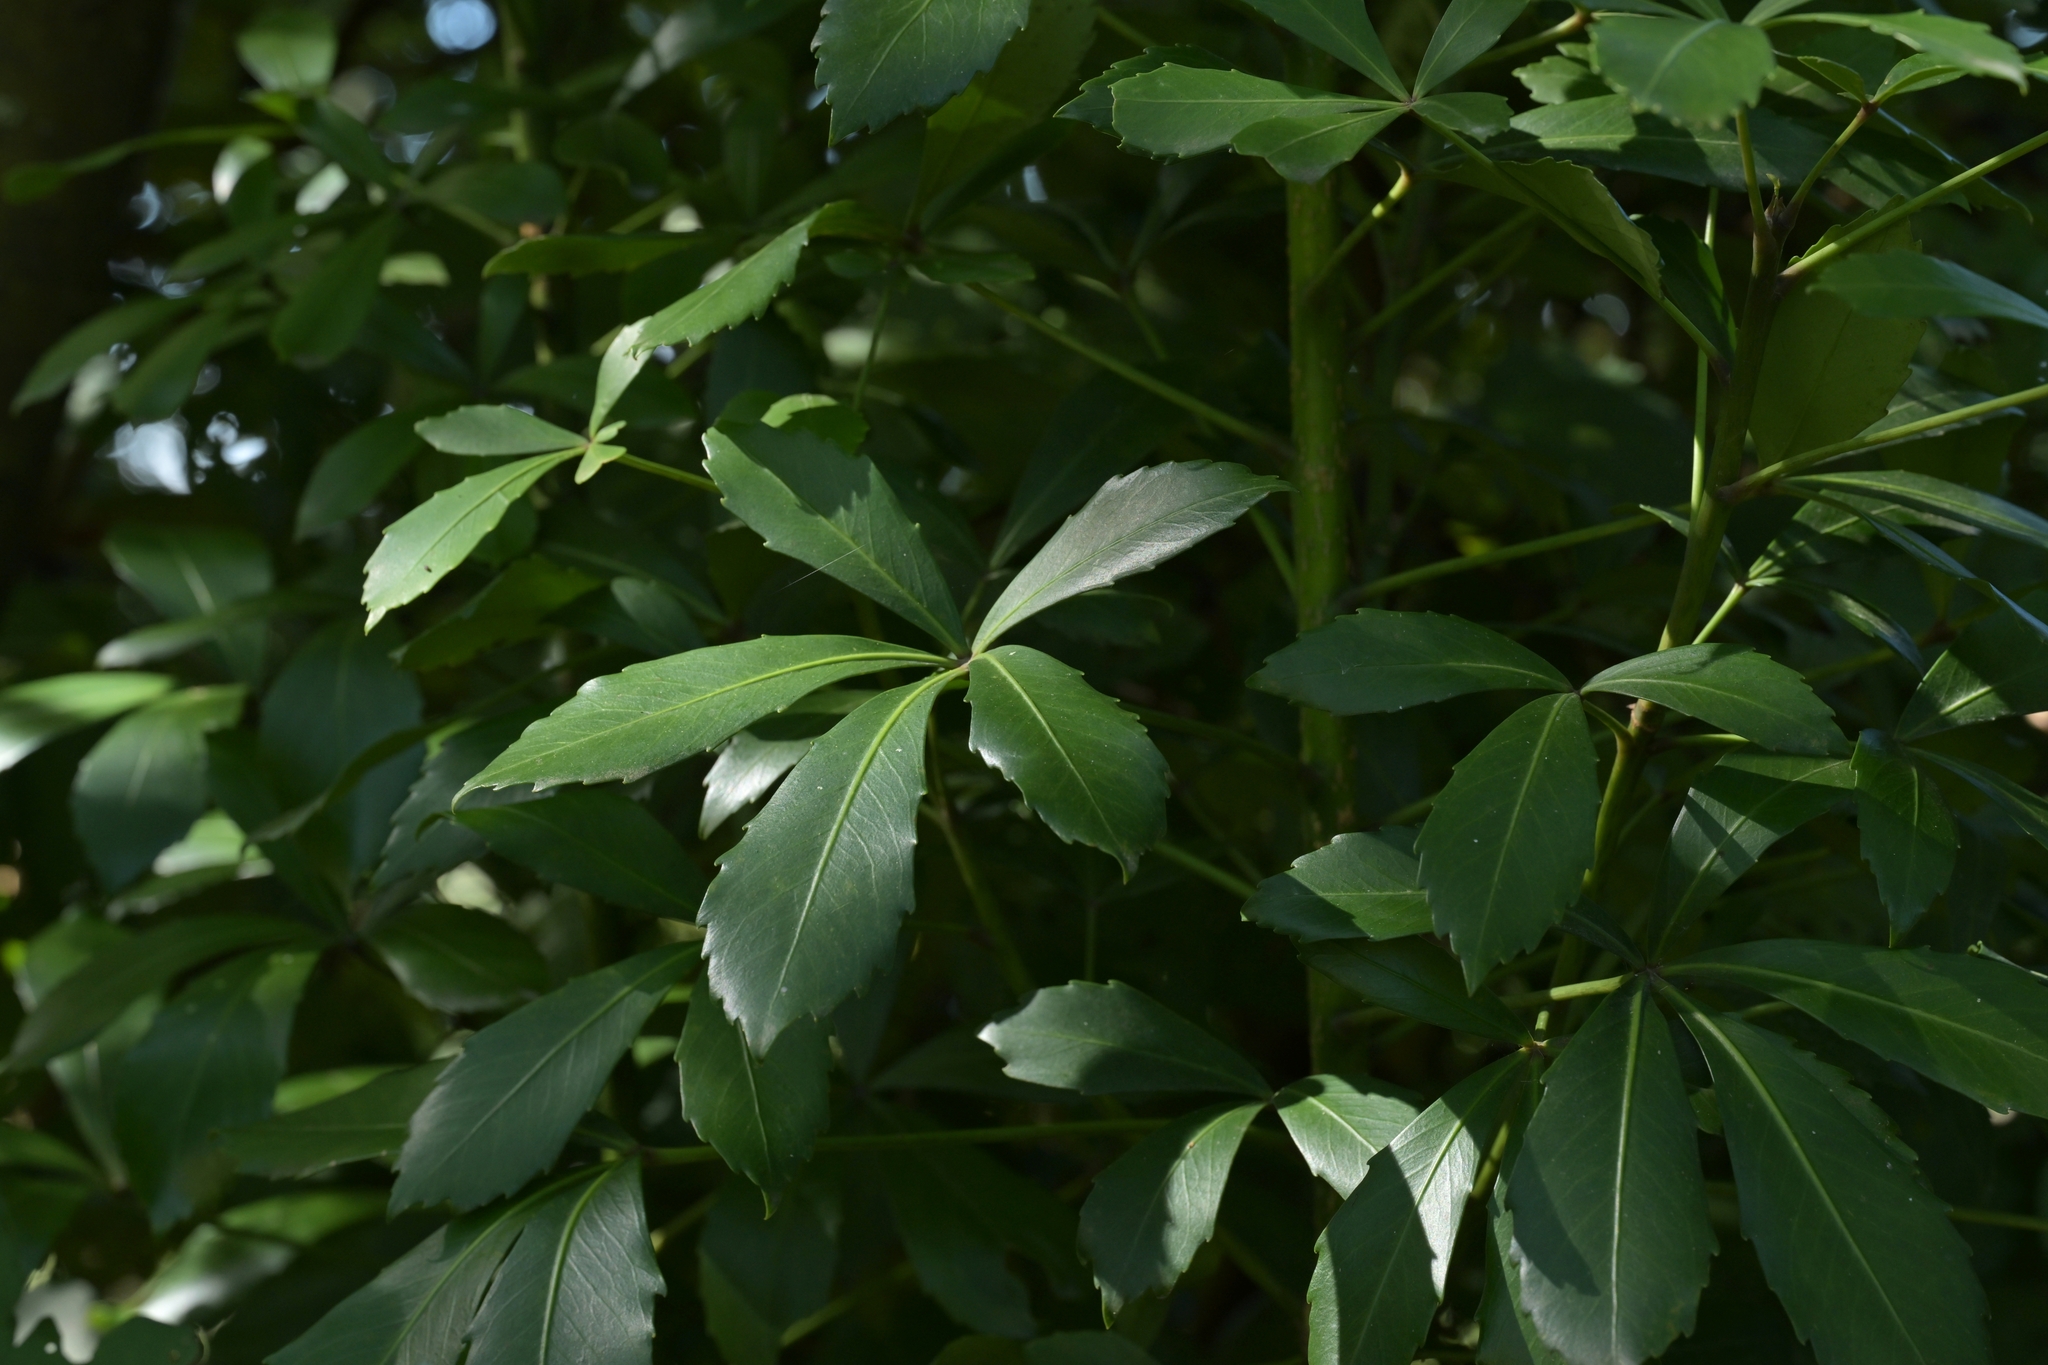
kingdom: Plantae
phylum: Tracheophyta
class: Magnoliopsida
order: Apiales
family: Araliaceae
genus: Pseudopanax
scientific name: Pseudopanax lessonii
